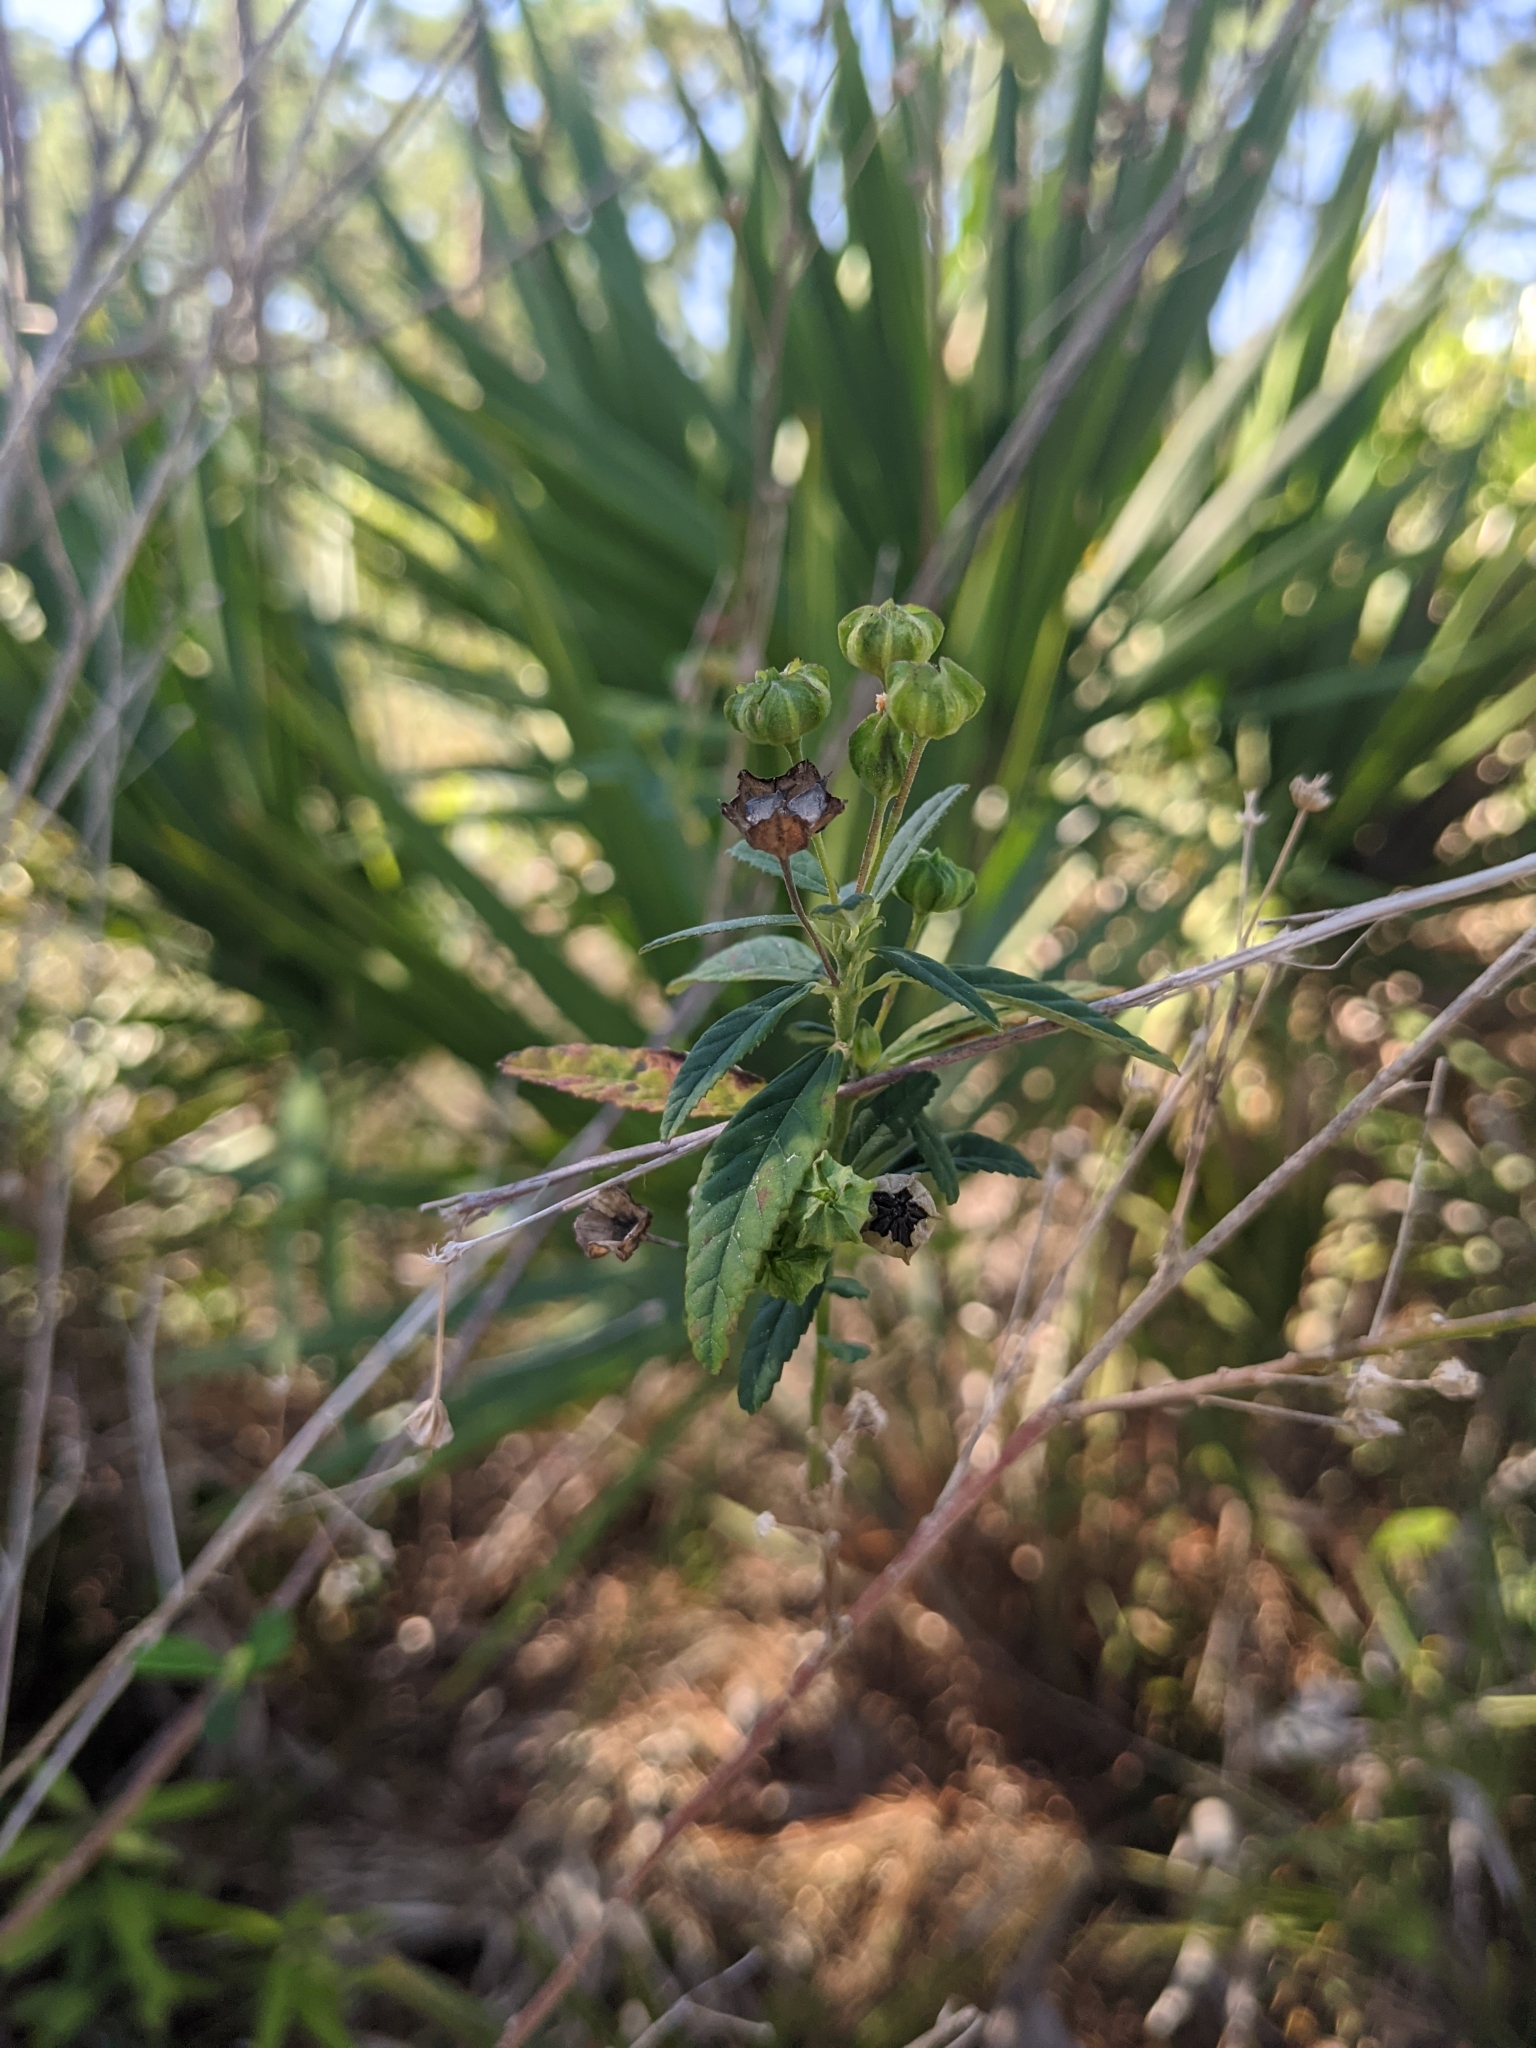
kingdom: Plantae
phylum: Tracheophyta
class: Magnoliopsida
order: Malvales
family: Malvaceae
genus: Sida
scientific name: Sida rhombifolia
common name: Queensland-hemp
